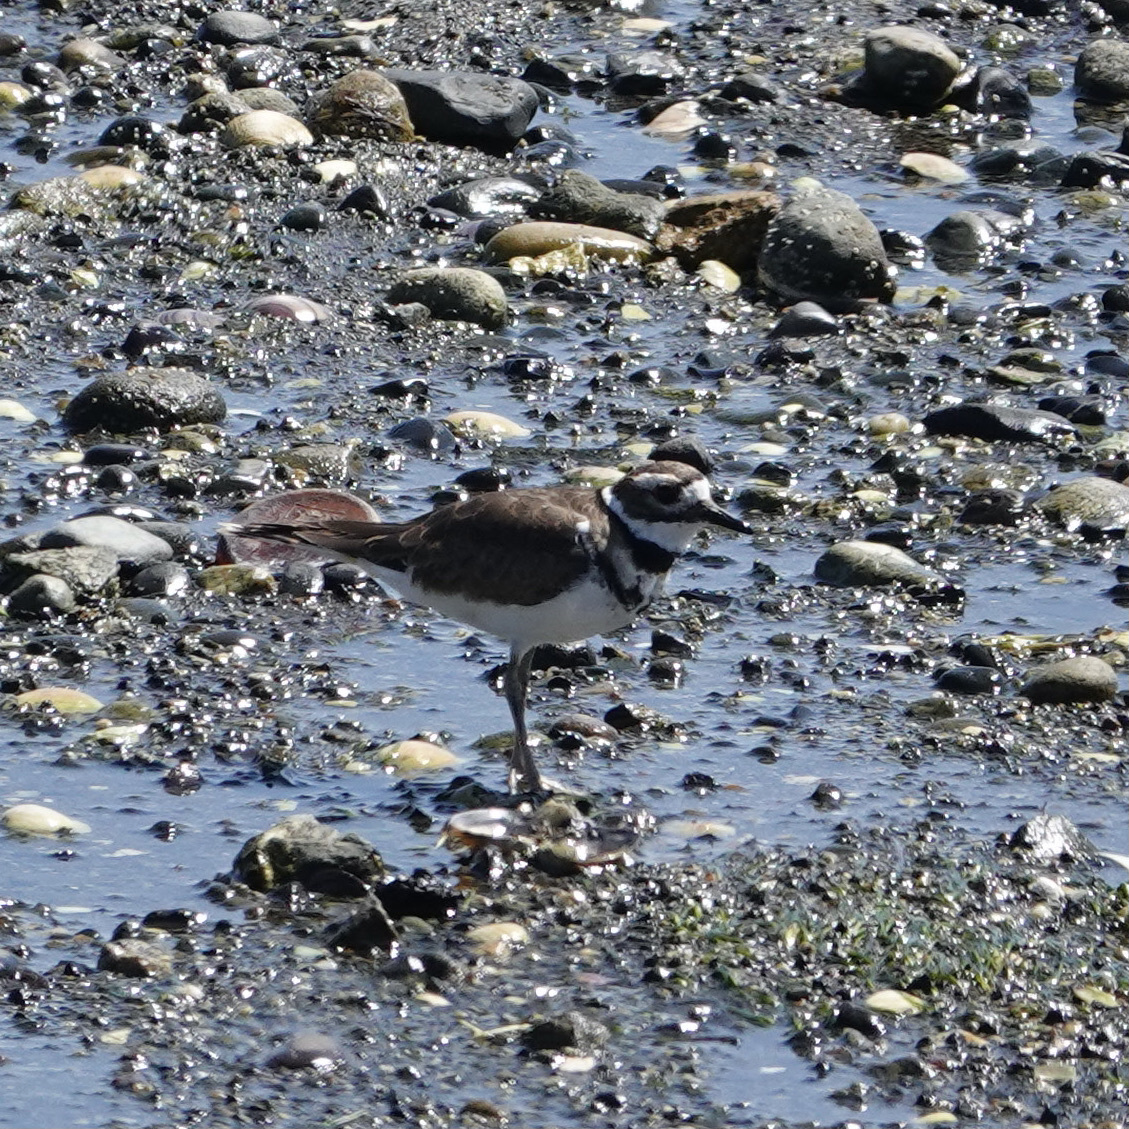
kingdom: Animalia
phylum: Chordata
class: Aves
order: Charadriiformes
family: Charadriidae
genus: Charadrius
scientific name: Charadrius vociferus
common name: Killdeer
